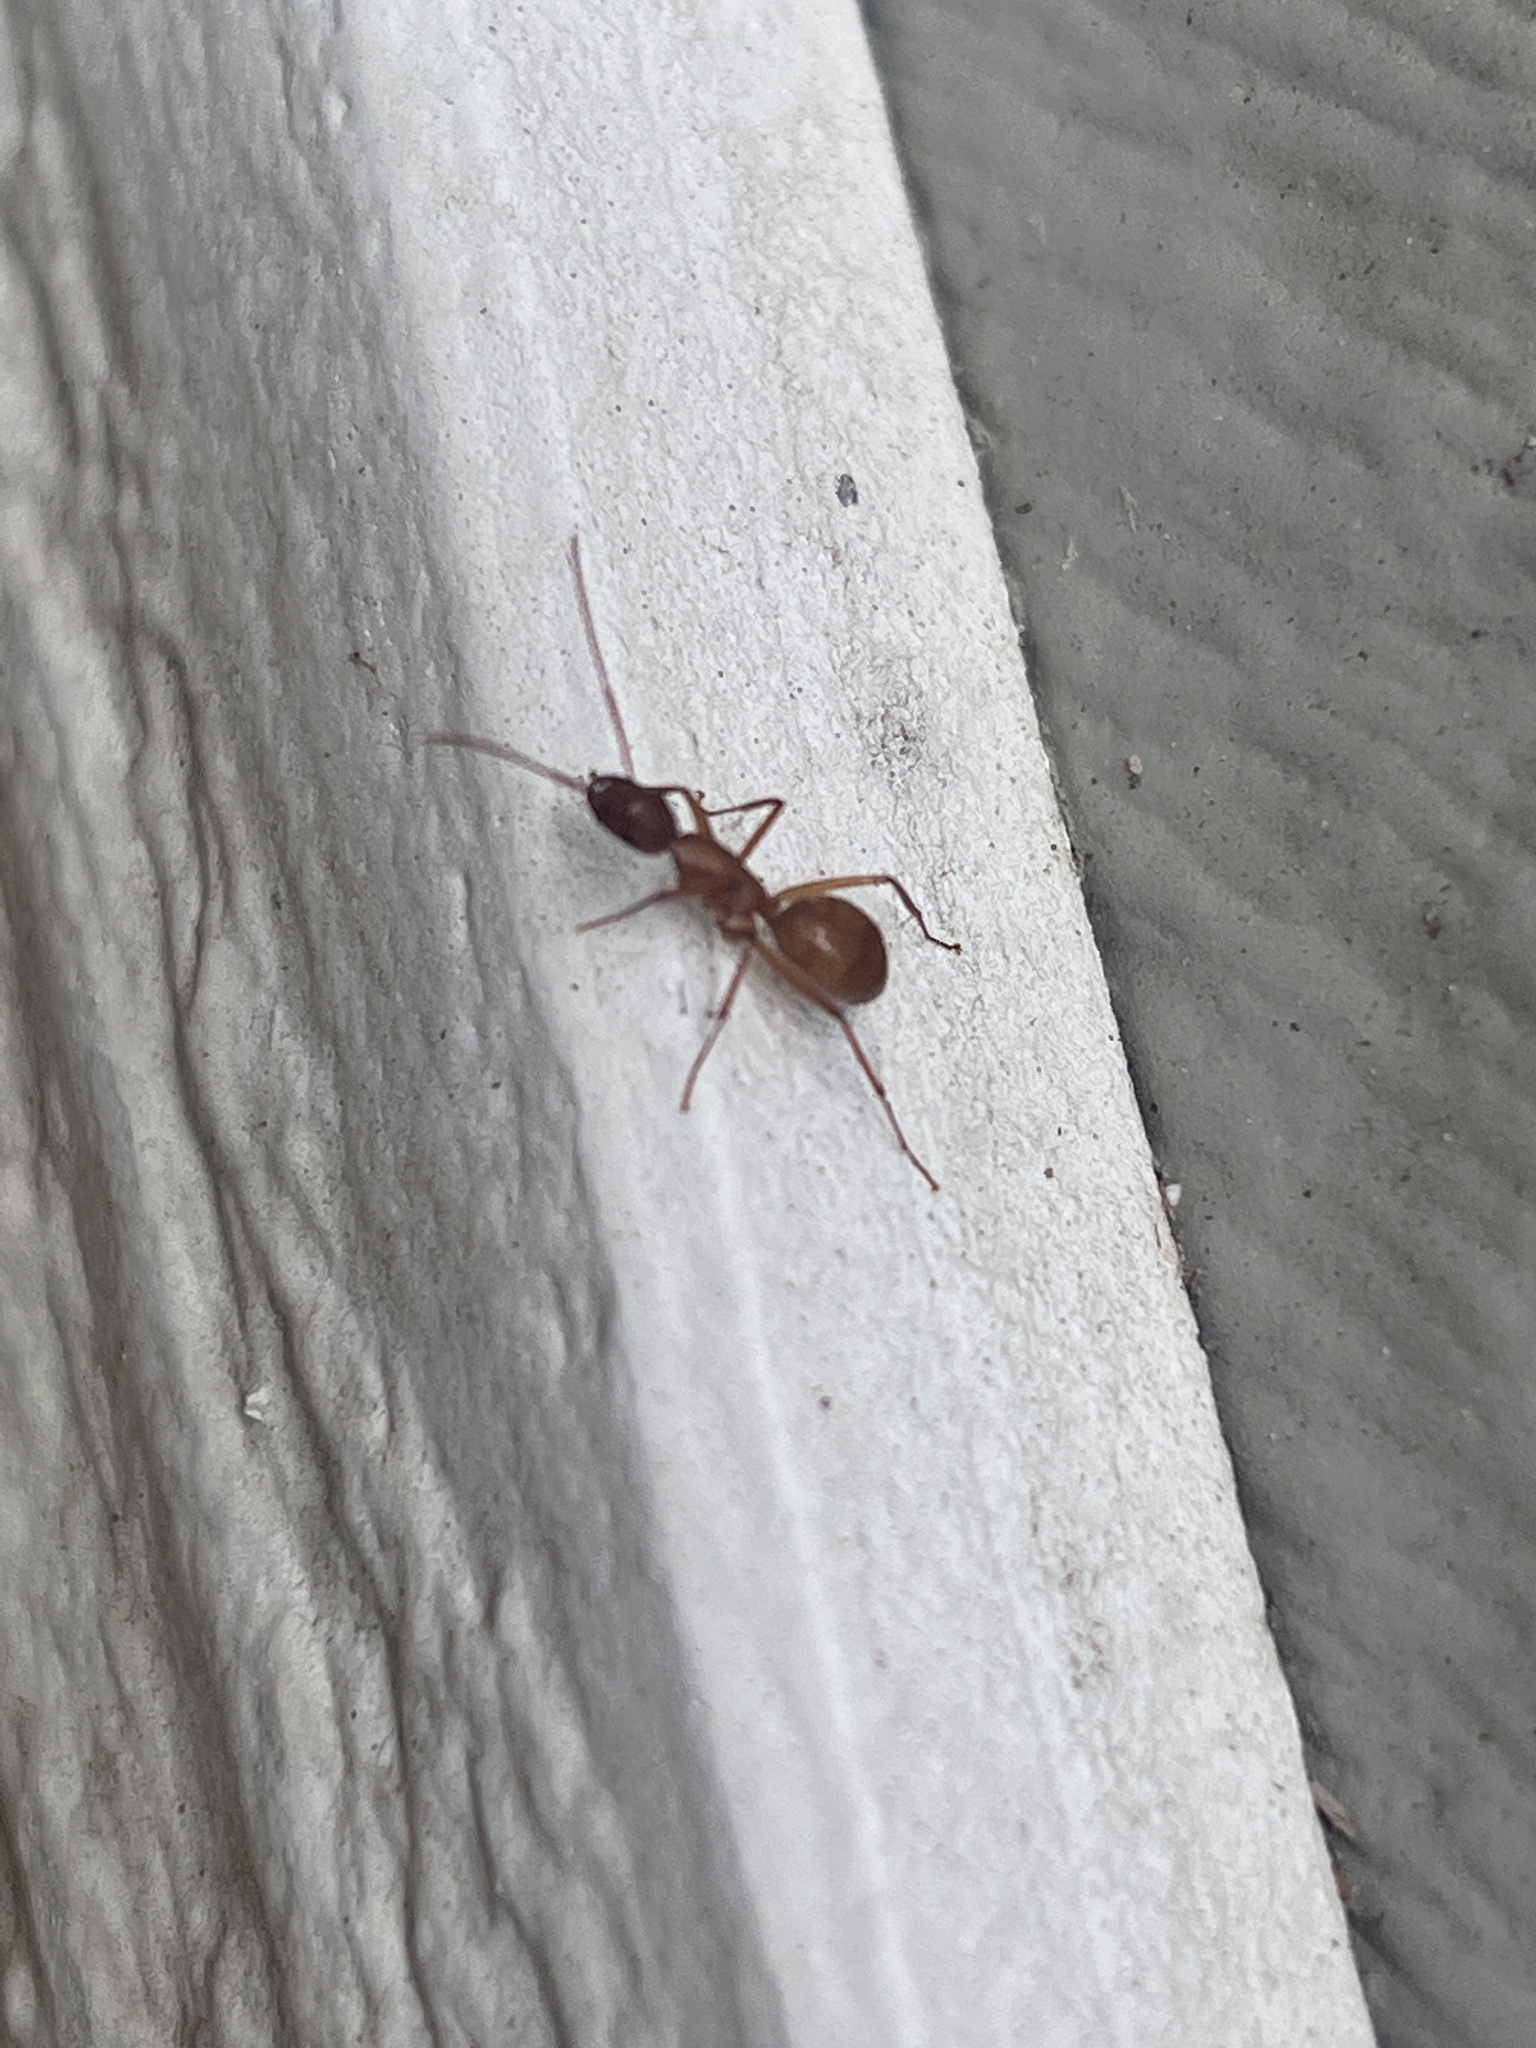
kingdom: Animalia
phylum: Arthropoda
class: Insecta
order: Hymenoptera
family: Formicidae
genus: Camponotus
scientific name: Camponotus castaneus
